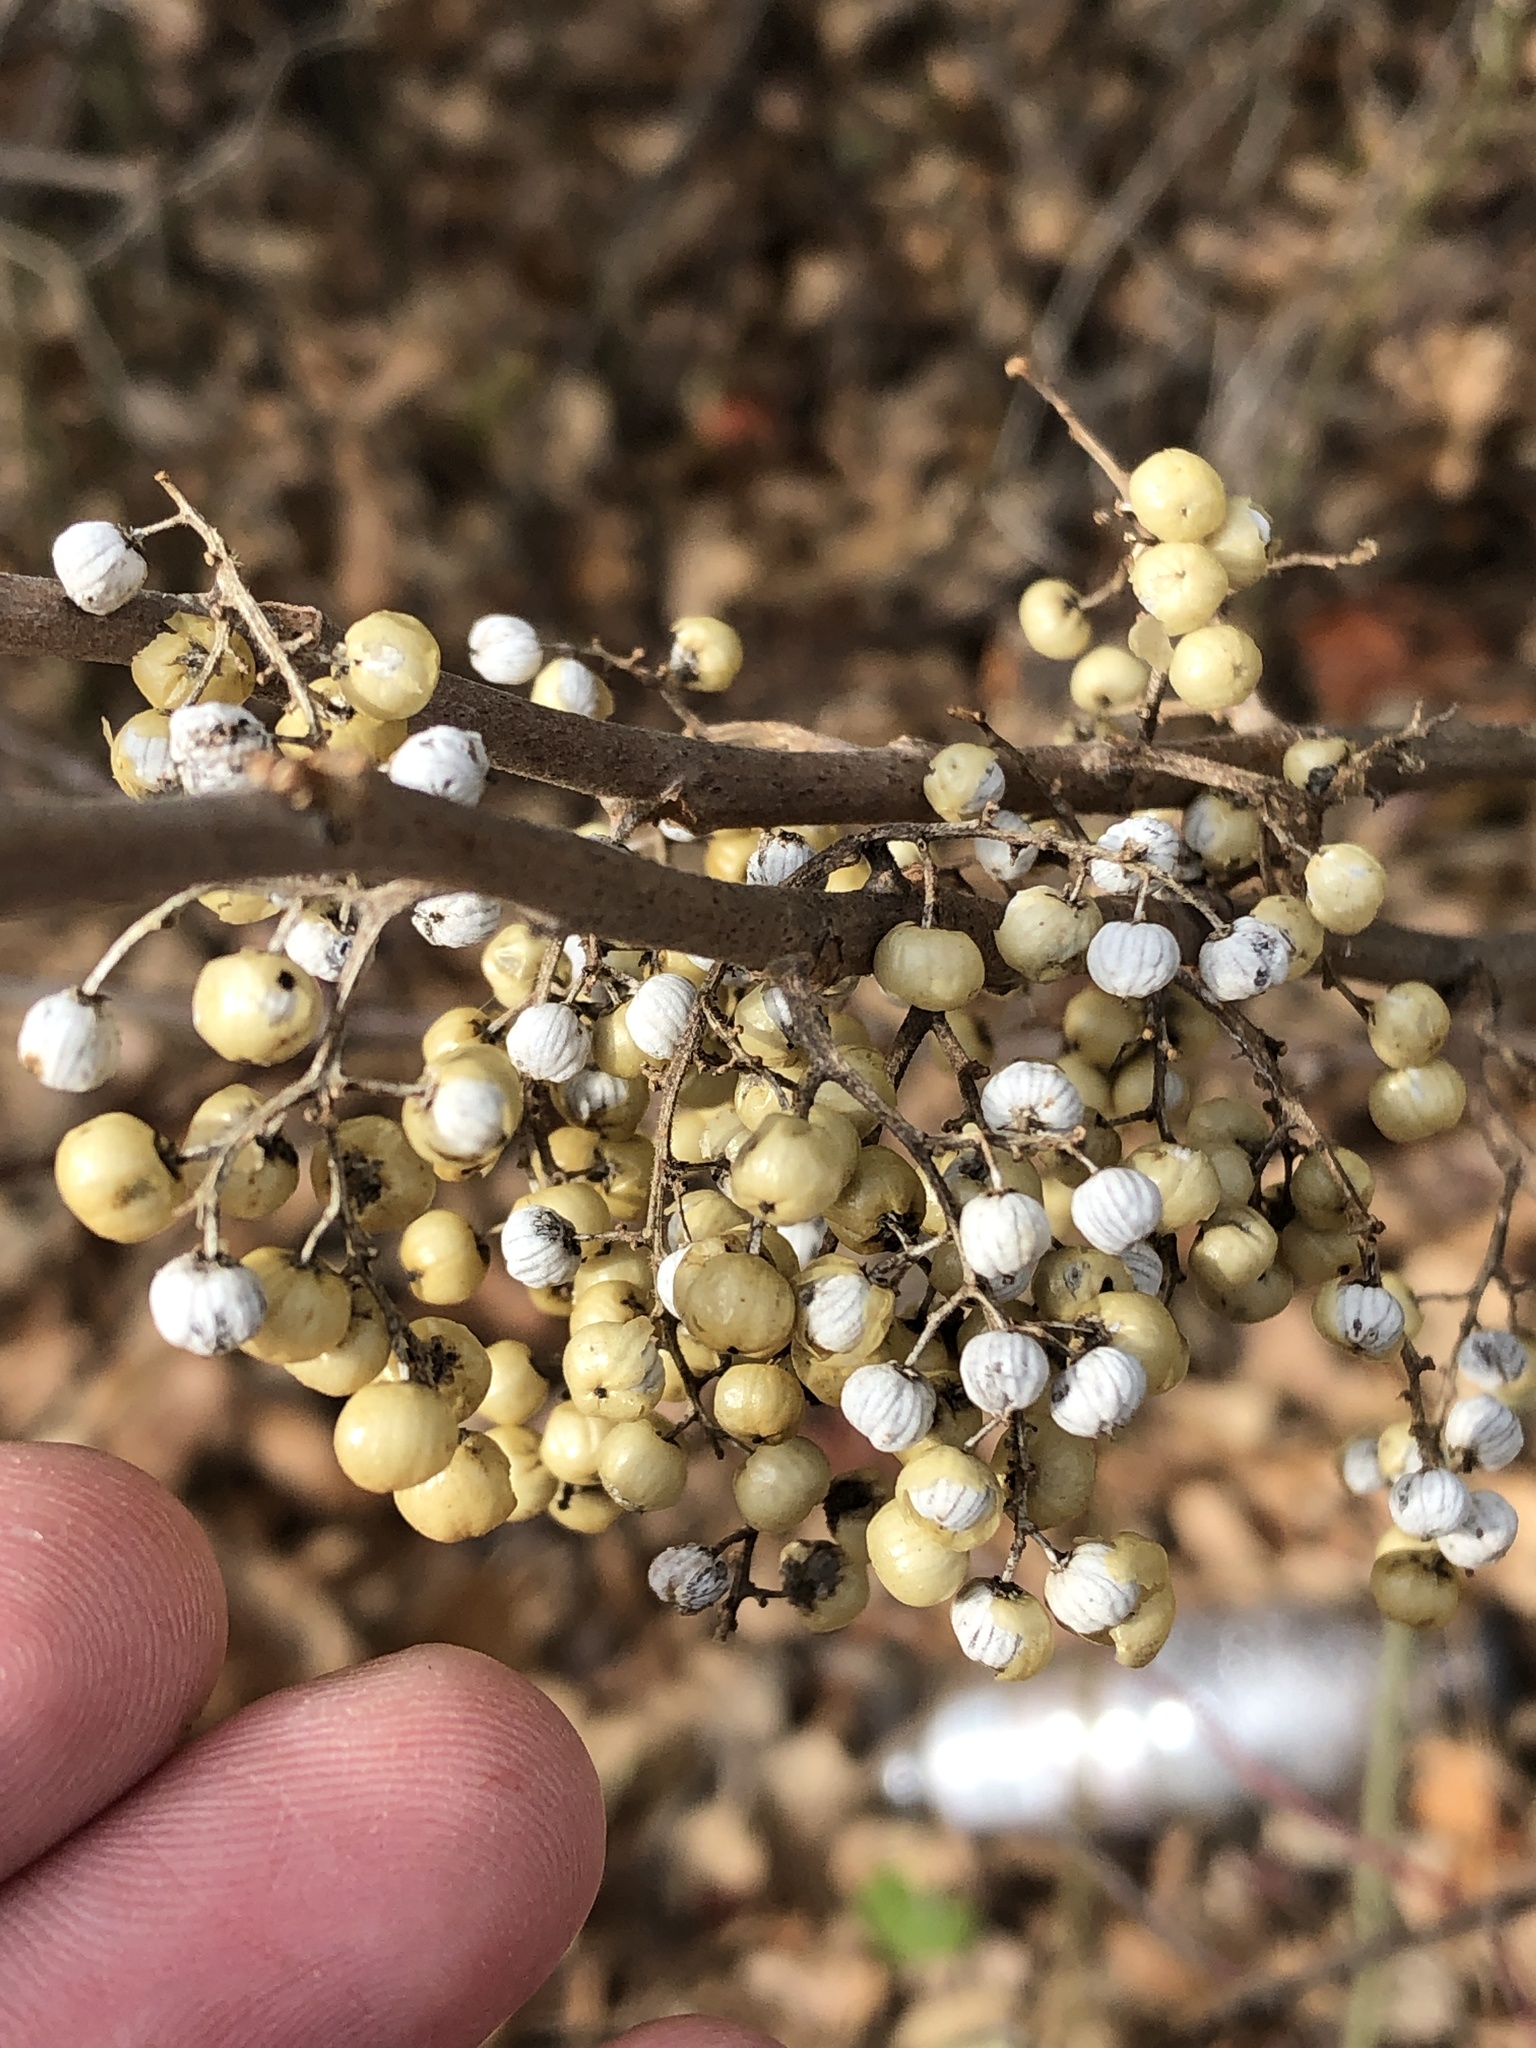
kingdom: Plantae
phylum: Tracheophyta
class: Magnoliopsida
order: Sapindales
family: Anacardiaceae
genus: Toxicodendron
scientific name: Toxicodendron radicans
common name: Poison ivy
